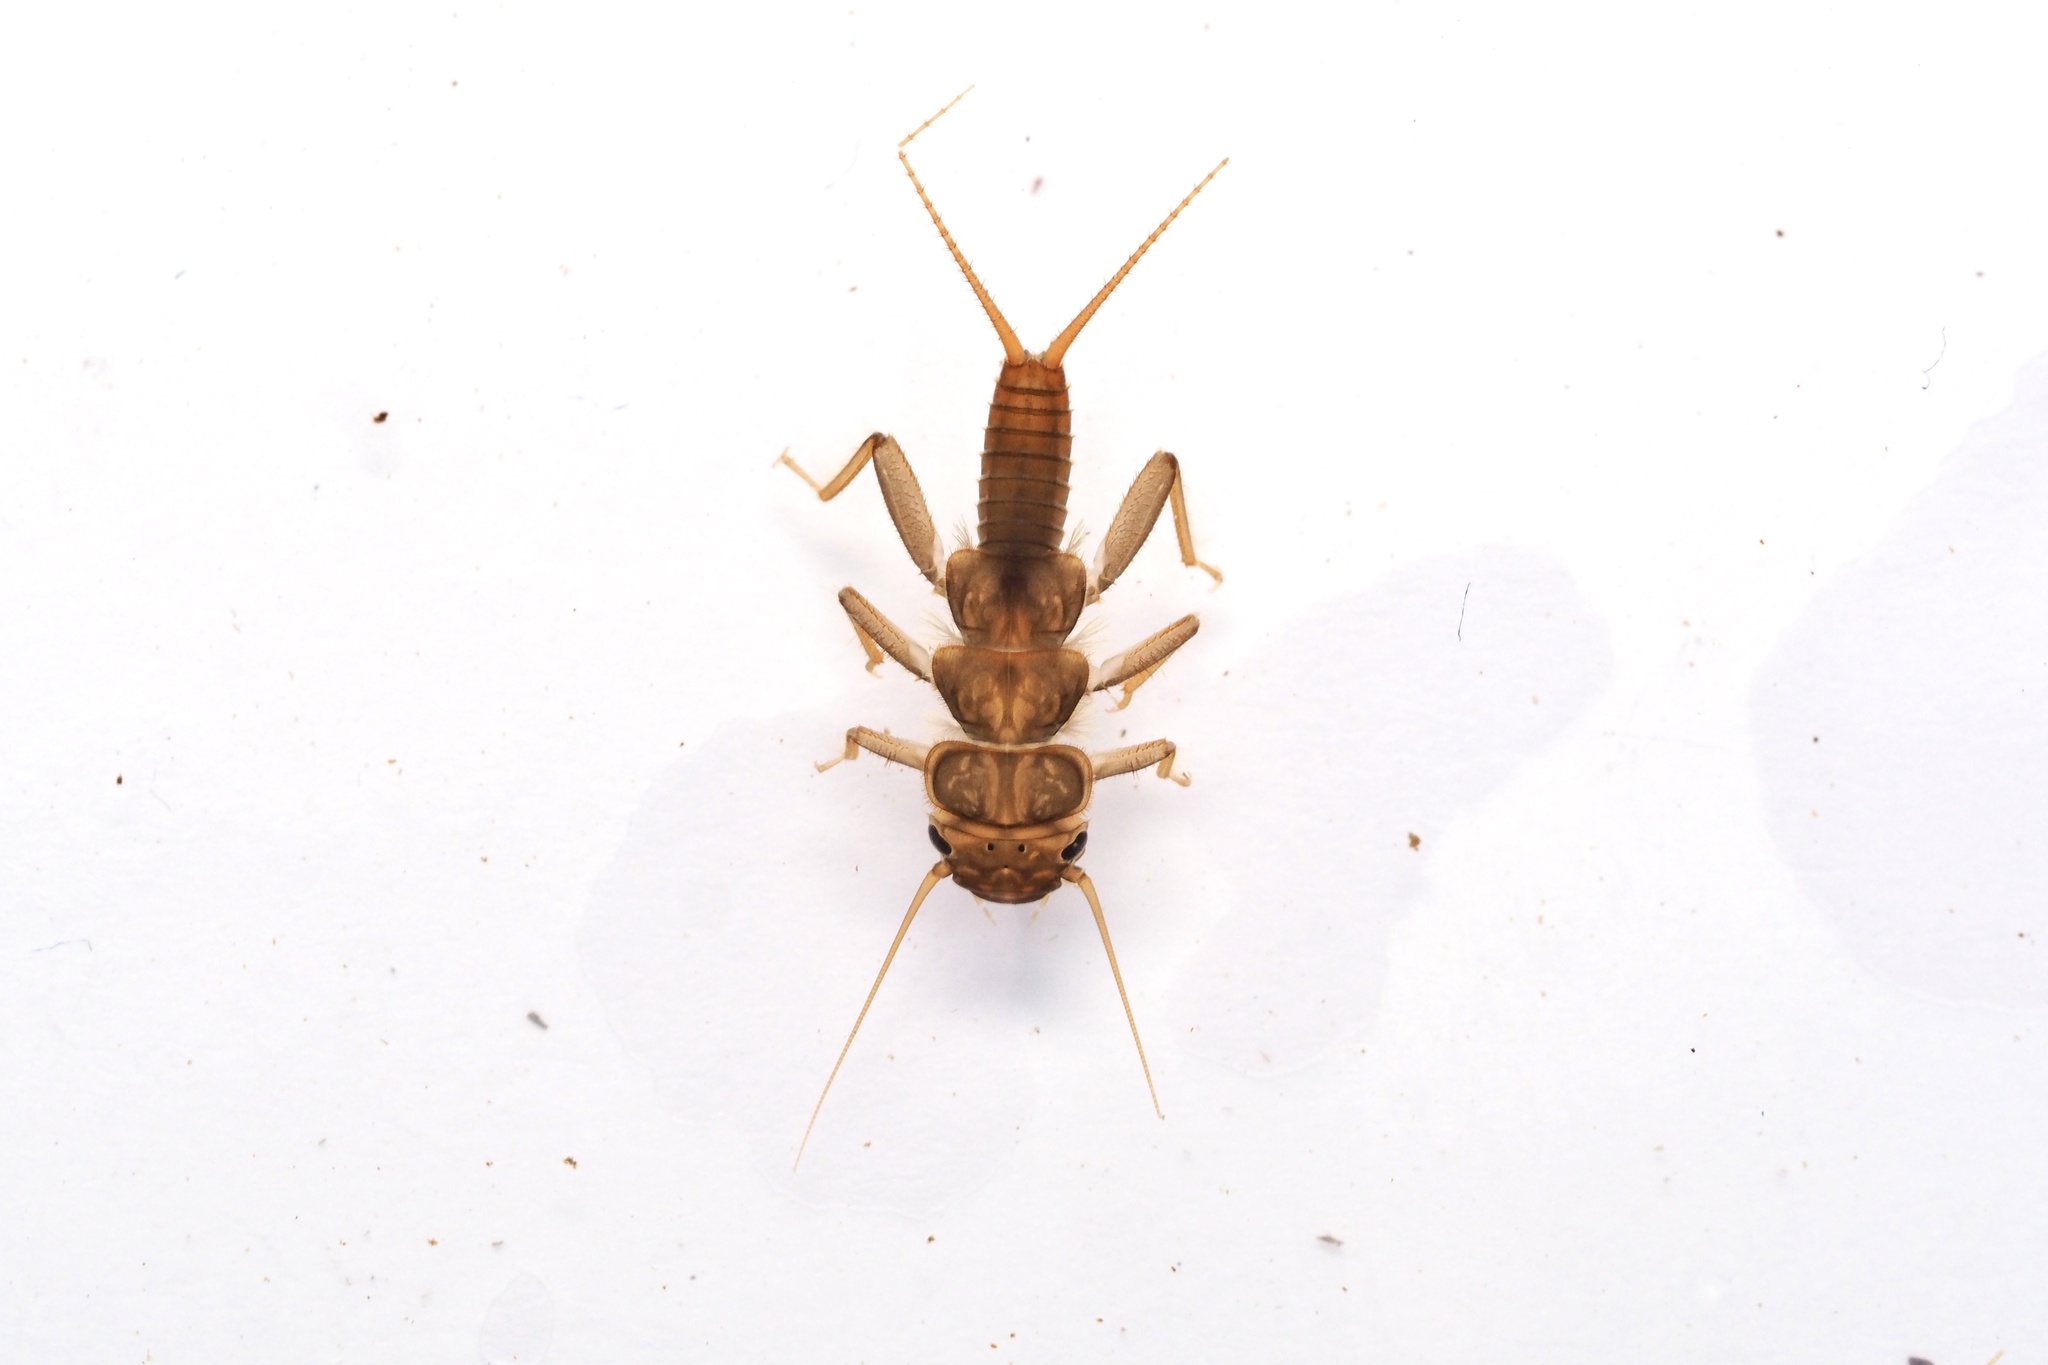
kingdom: Animalia
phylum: Arthropoda
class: Insecta
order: Plecoptera
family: Perlidae
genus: Oyamia
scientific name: Oyamia cryptomeria
